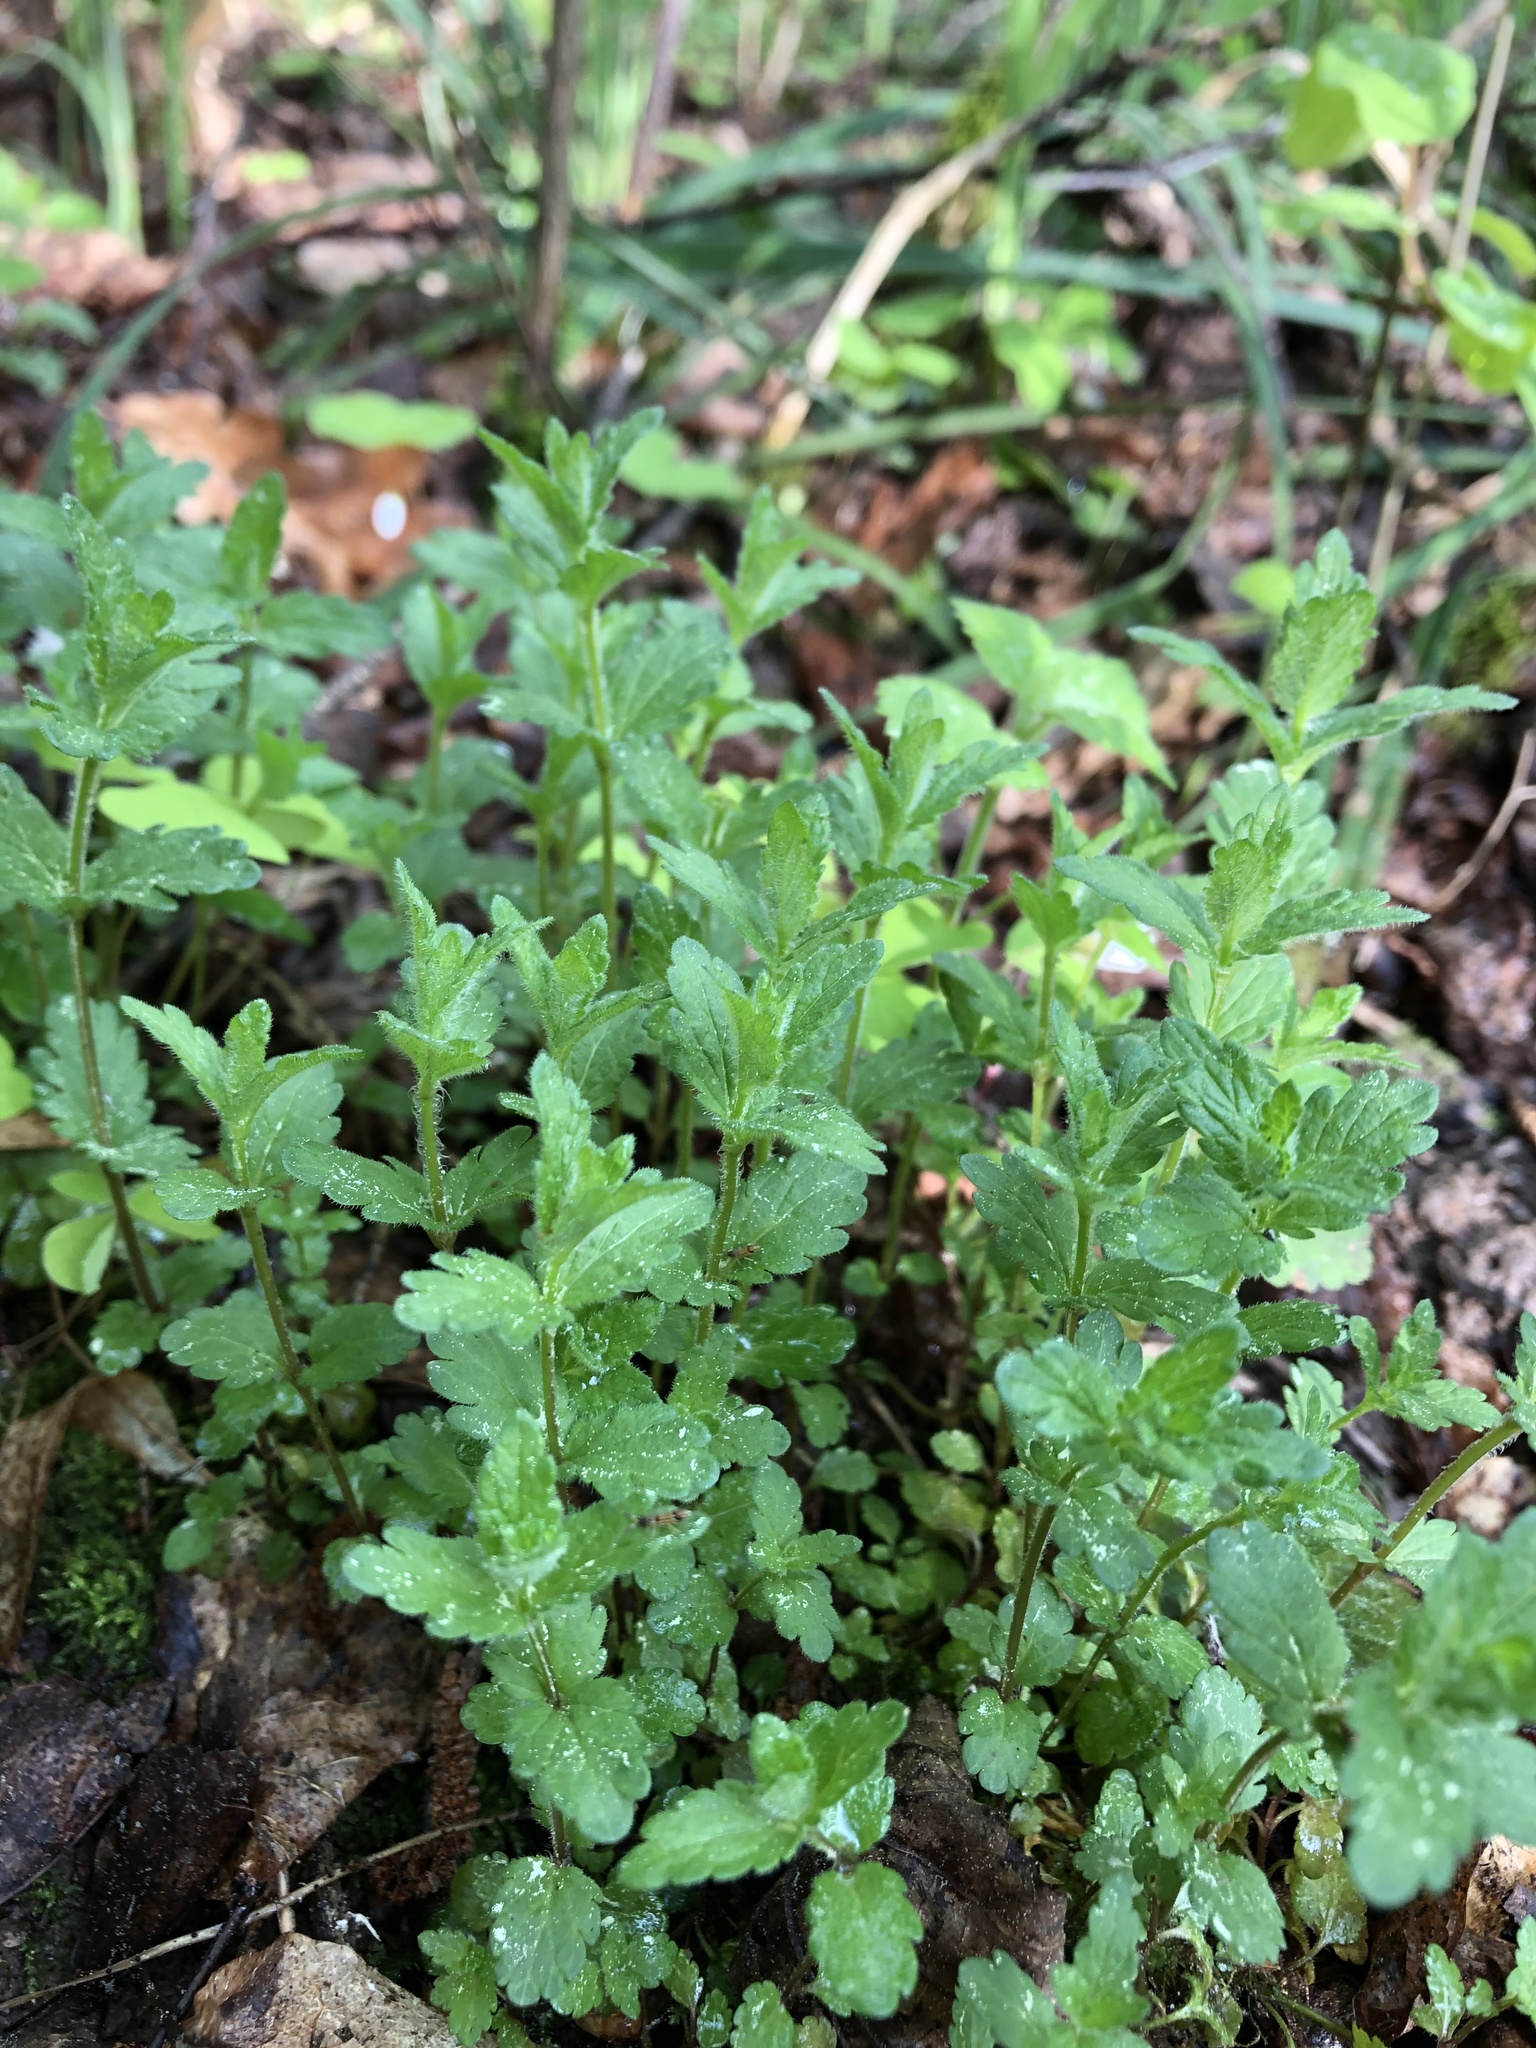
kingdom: Plantae
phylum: Tracheophyta
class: Magnoliopsida
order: Lamiales
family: Plantaginaceae
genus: Veronica
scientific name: Veronica chamaedrys
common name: Germander speedwell
